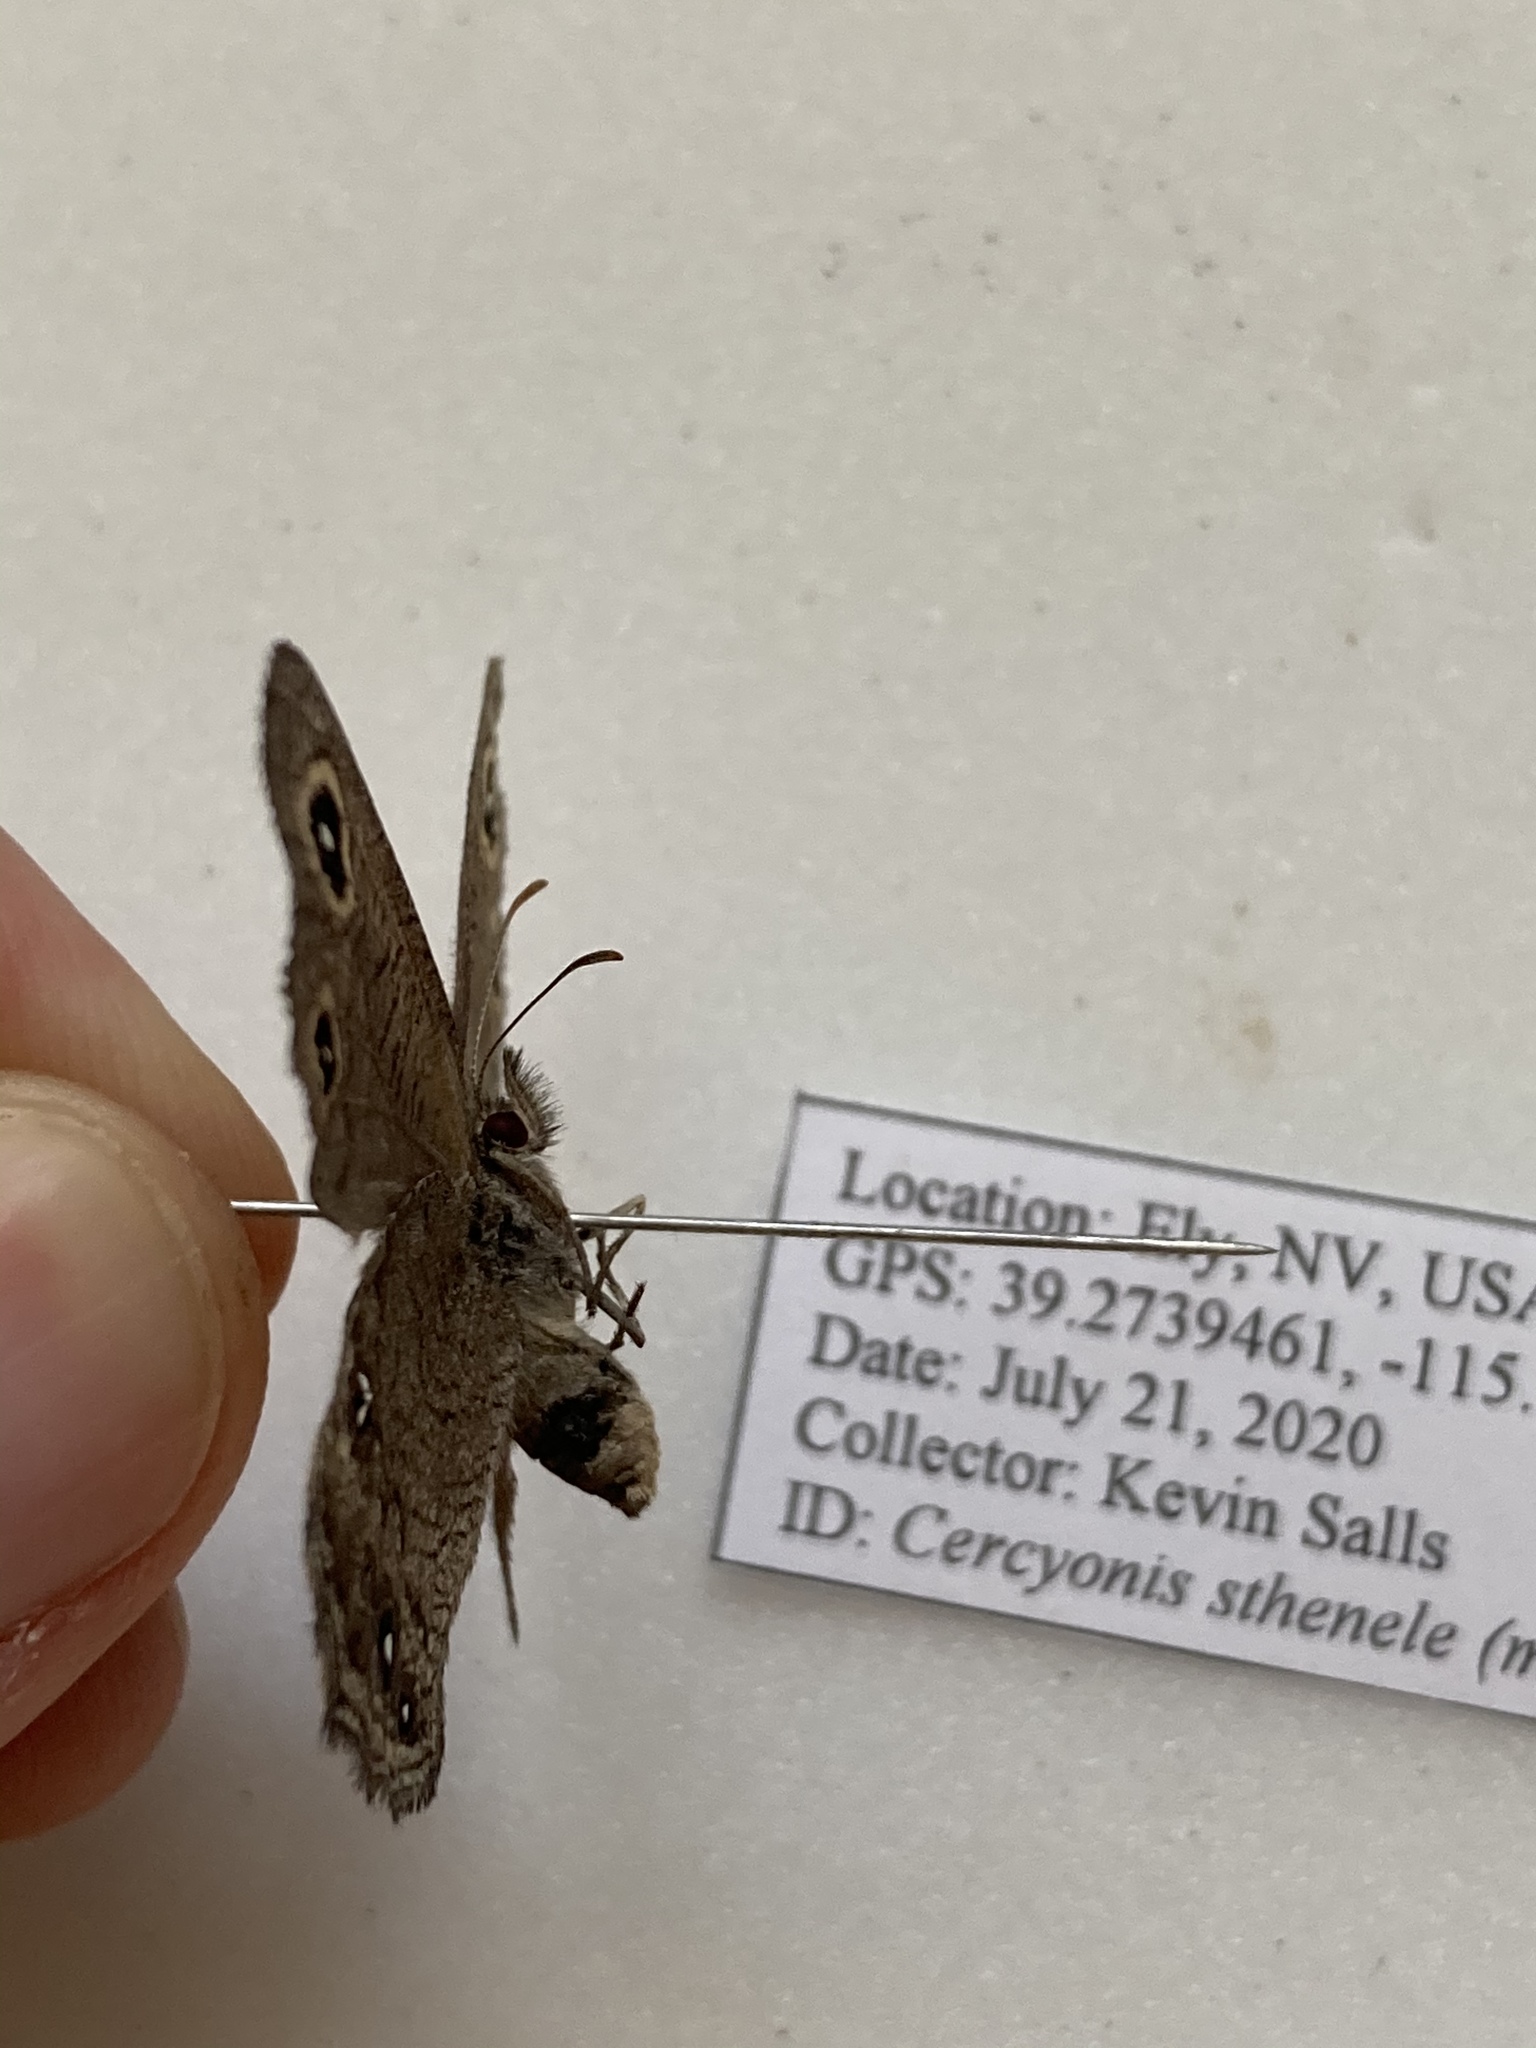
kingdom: Animalia
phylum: Arthropoda
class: Insecta
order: Lepidoptera
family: Nymphalidae
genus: Cercyonis
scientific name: Cercyonis sthenele
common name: Great basin wood-nymph
